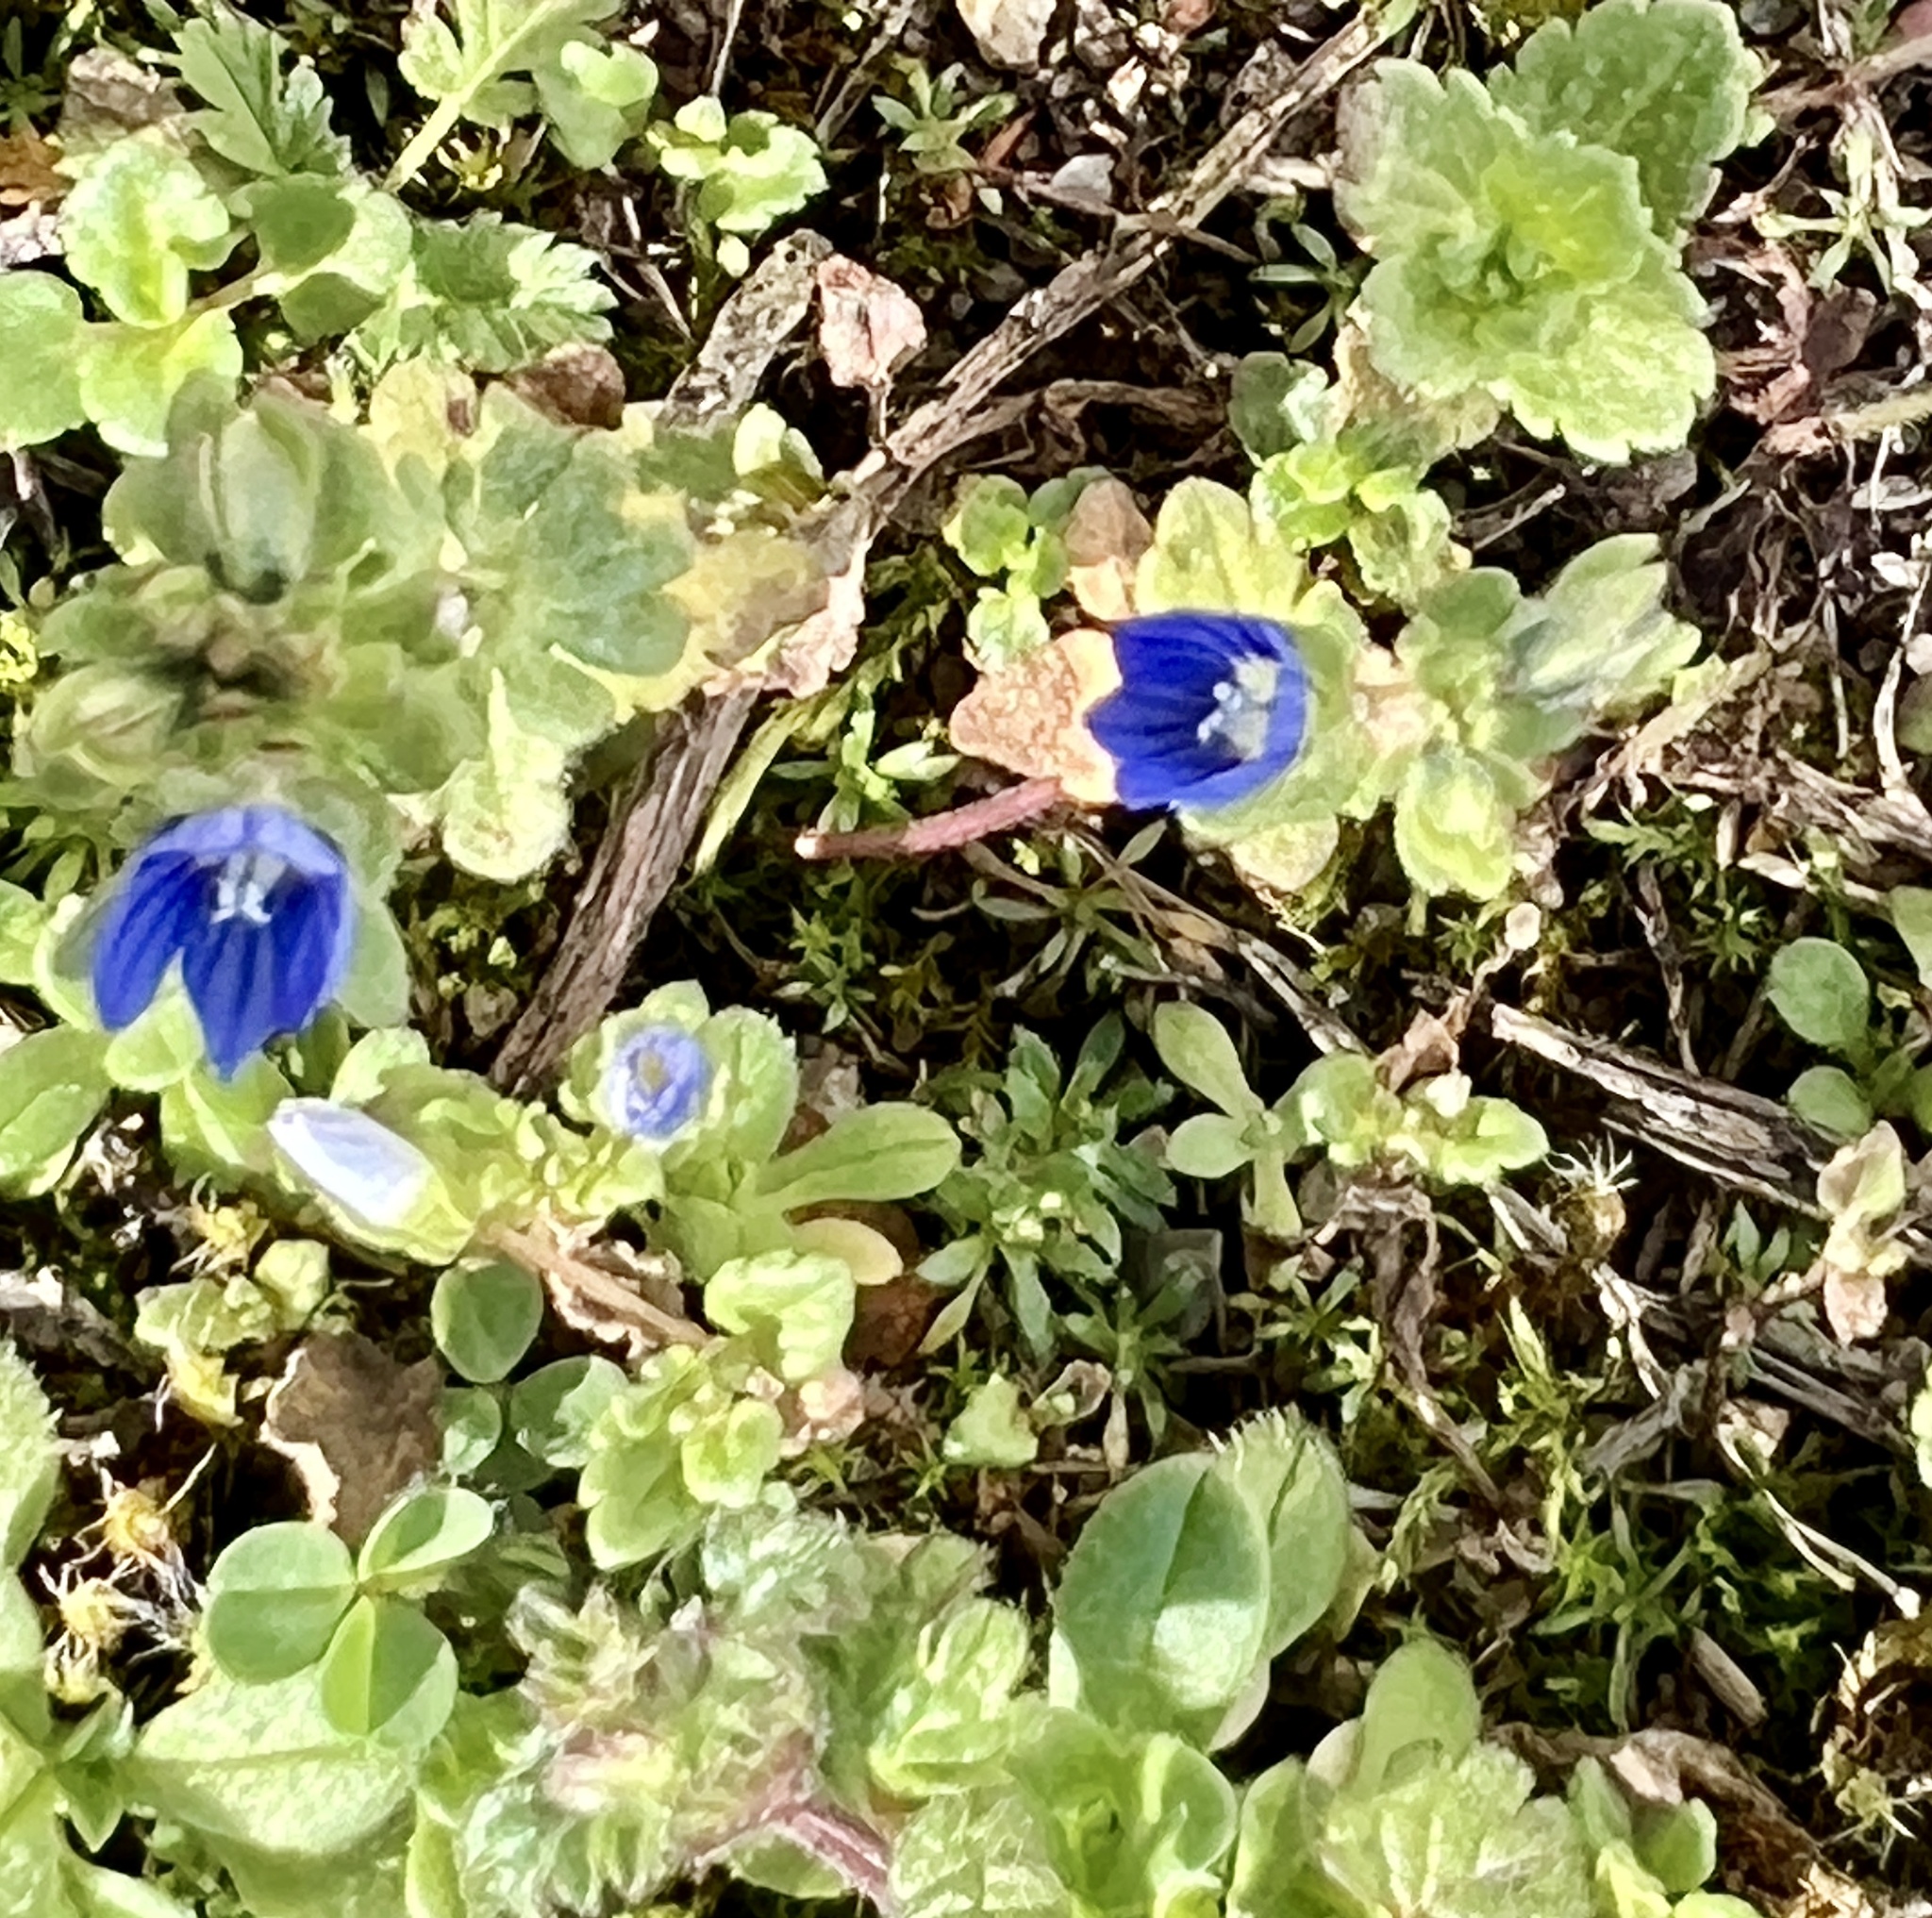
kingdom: Plantae
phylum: Tracheophyta
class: Magnoliopsida
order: Lamiales
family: Plantaginaceae
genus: Veronica
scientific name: Veronica triphyllos
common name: Fingered speedwell
